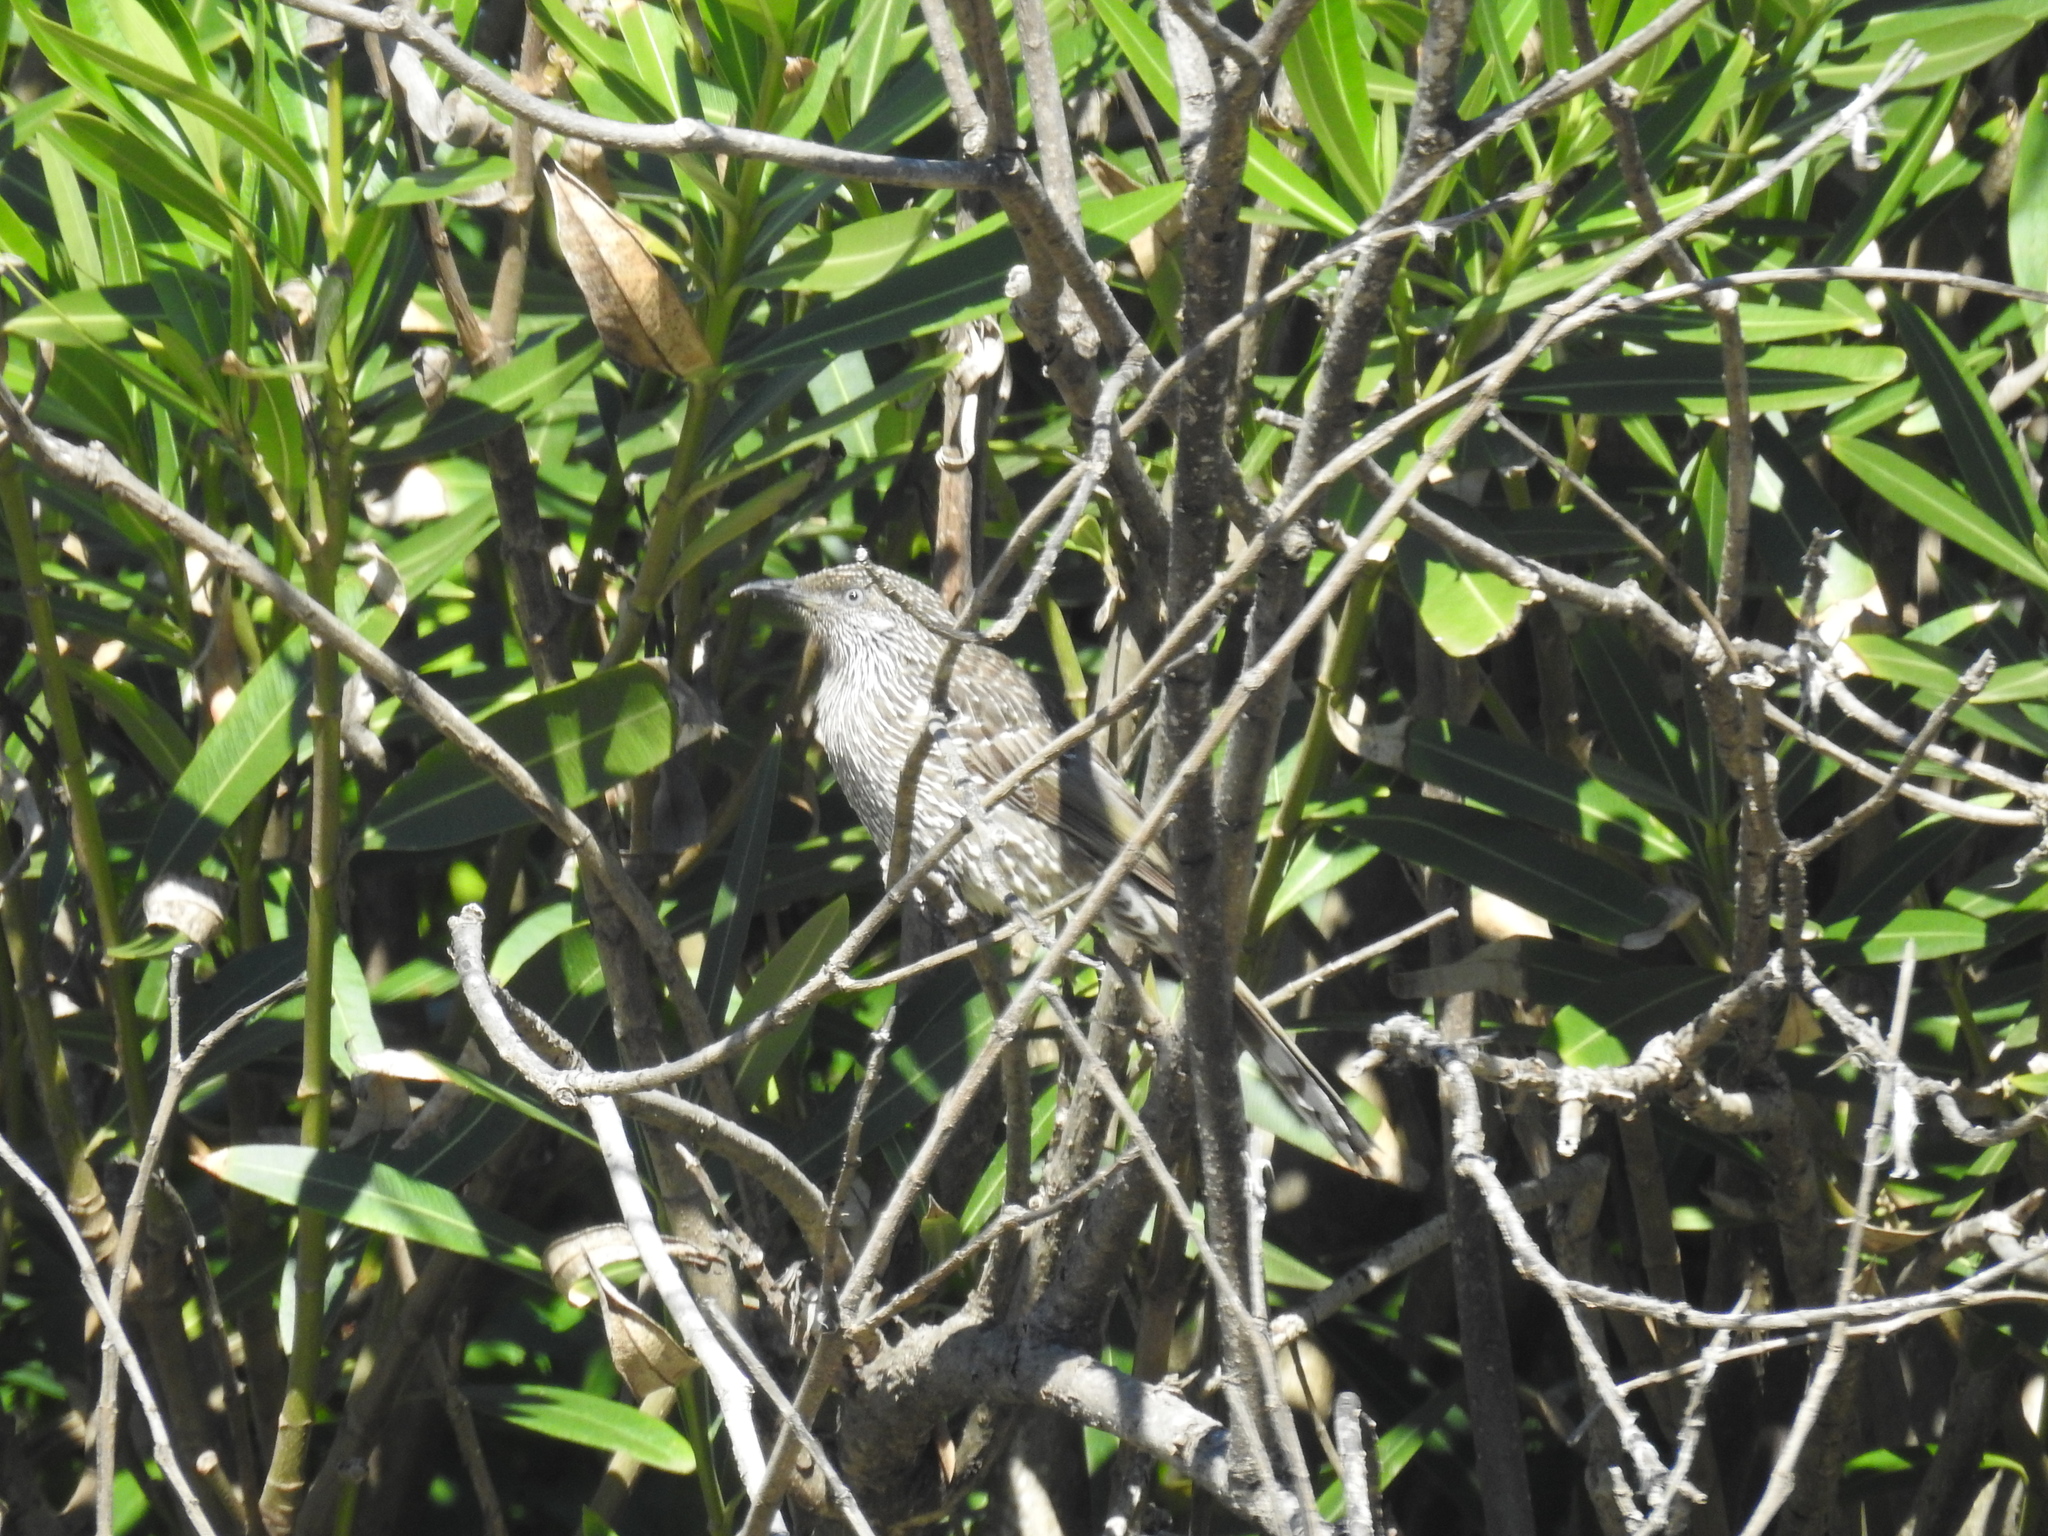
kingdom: Animalia
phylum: Chordata
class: Aves
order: Passeriformes
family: Meliphagidae
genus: Anthochaera
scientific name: Anthochaera chrysoptera
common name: Little wattlebird
